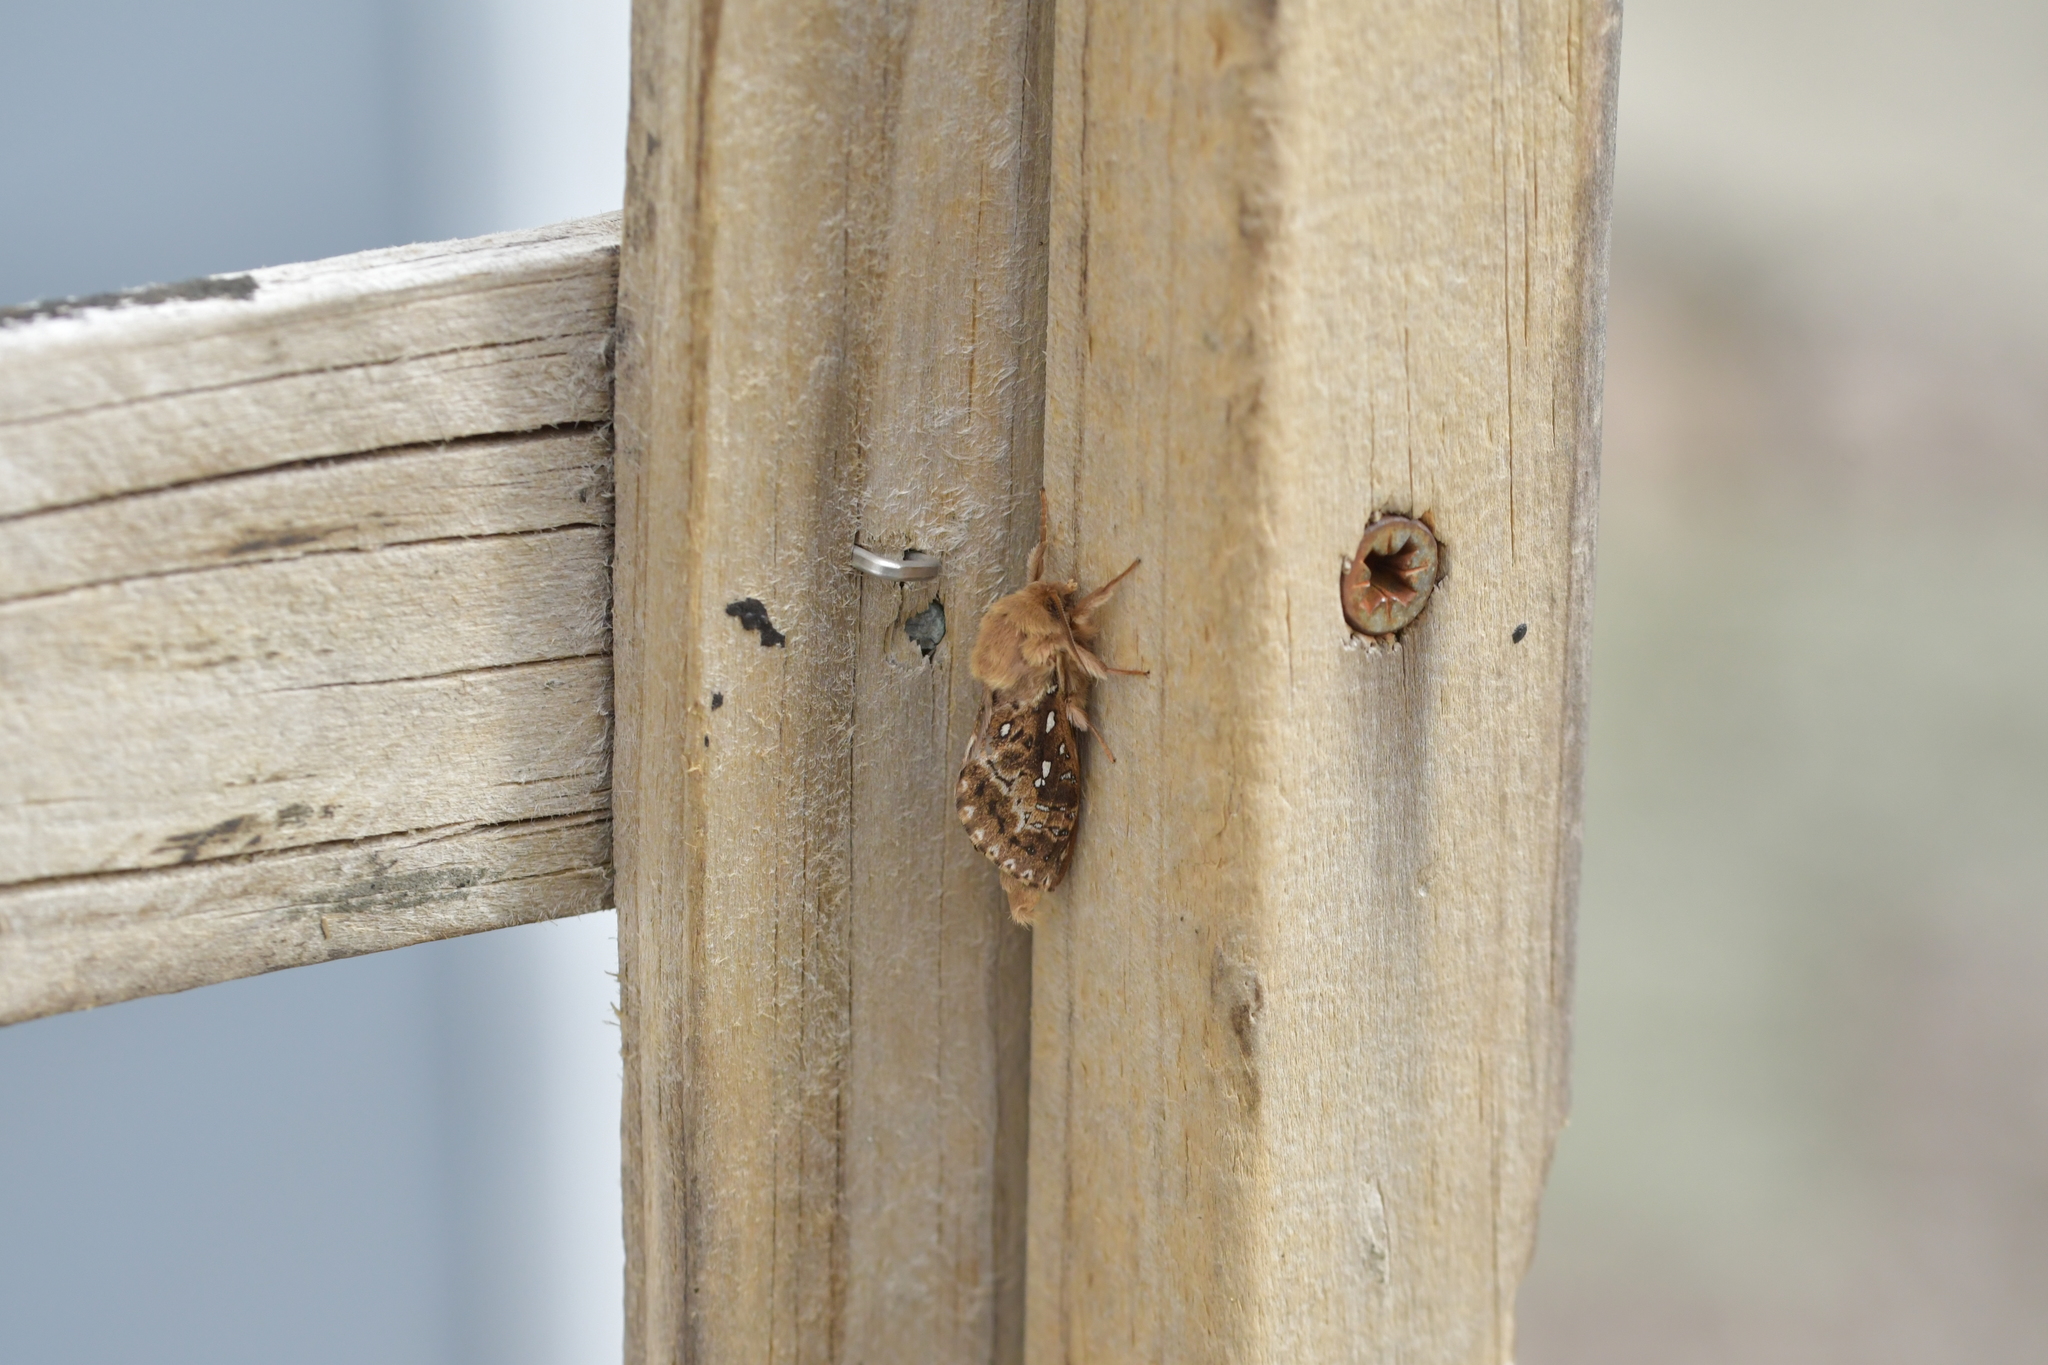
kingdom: Animalia
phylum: Arthropoda
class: Insecta
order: Lepidoptera
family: Hepialidae
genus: Wiseana
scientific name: Wiseana cervinata
